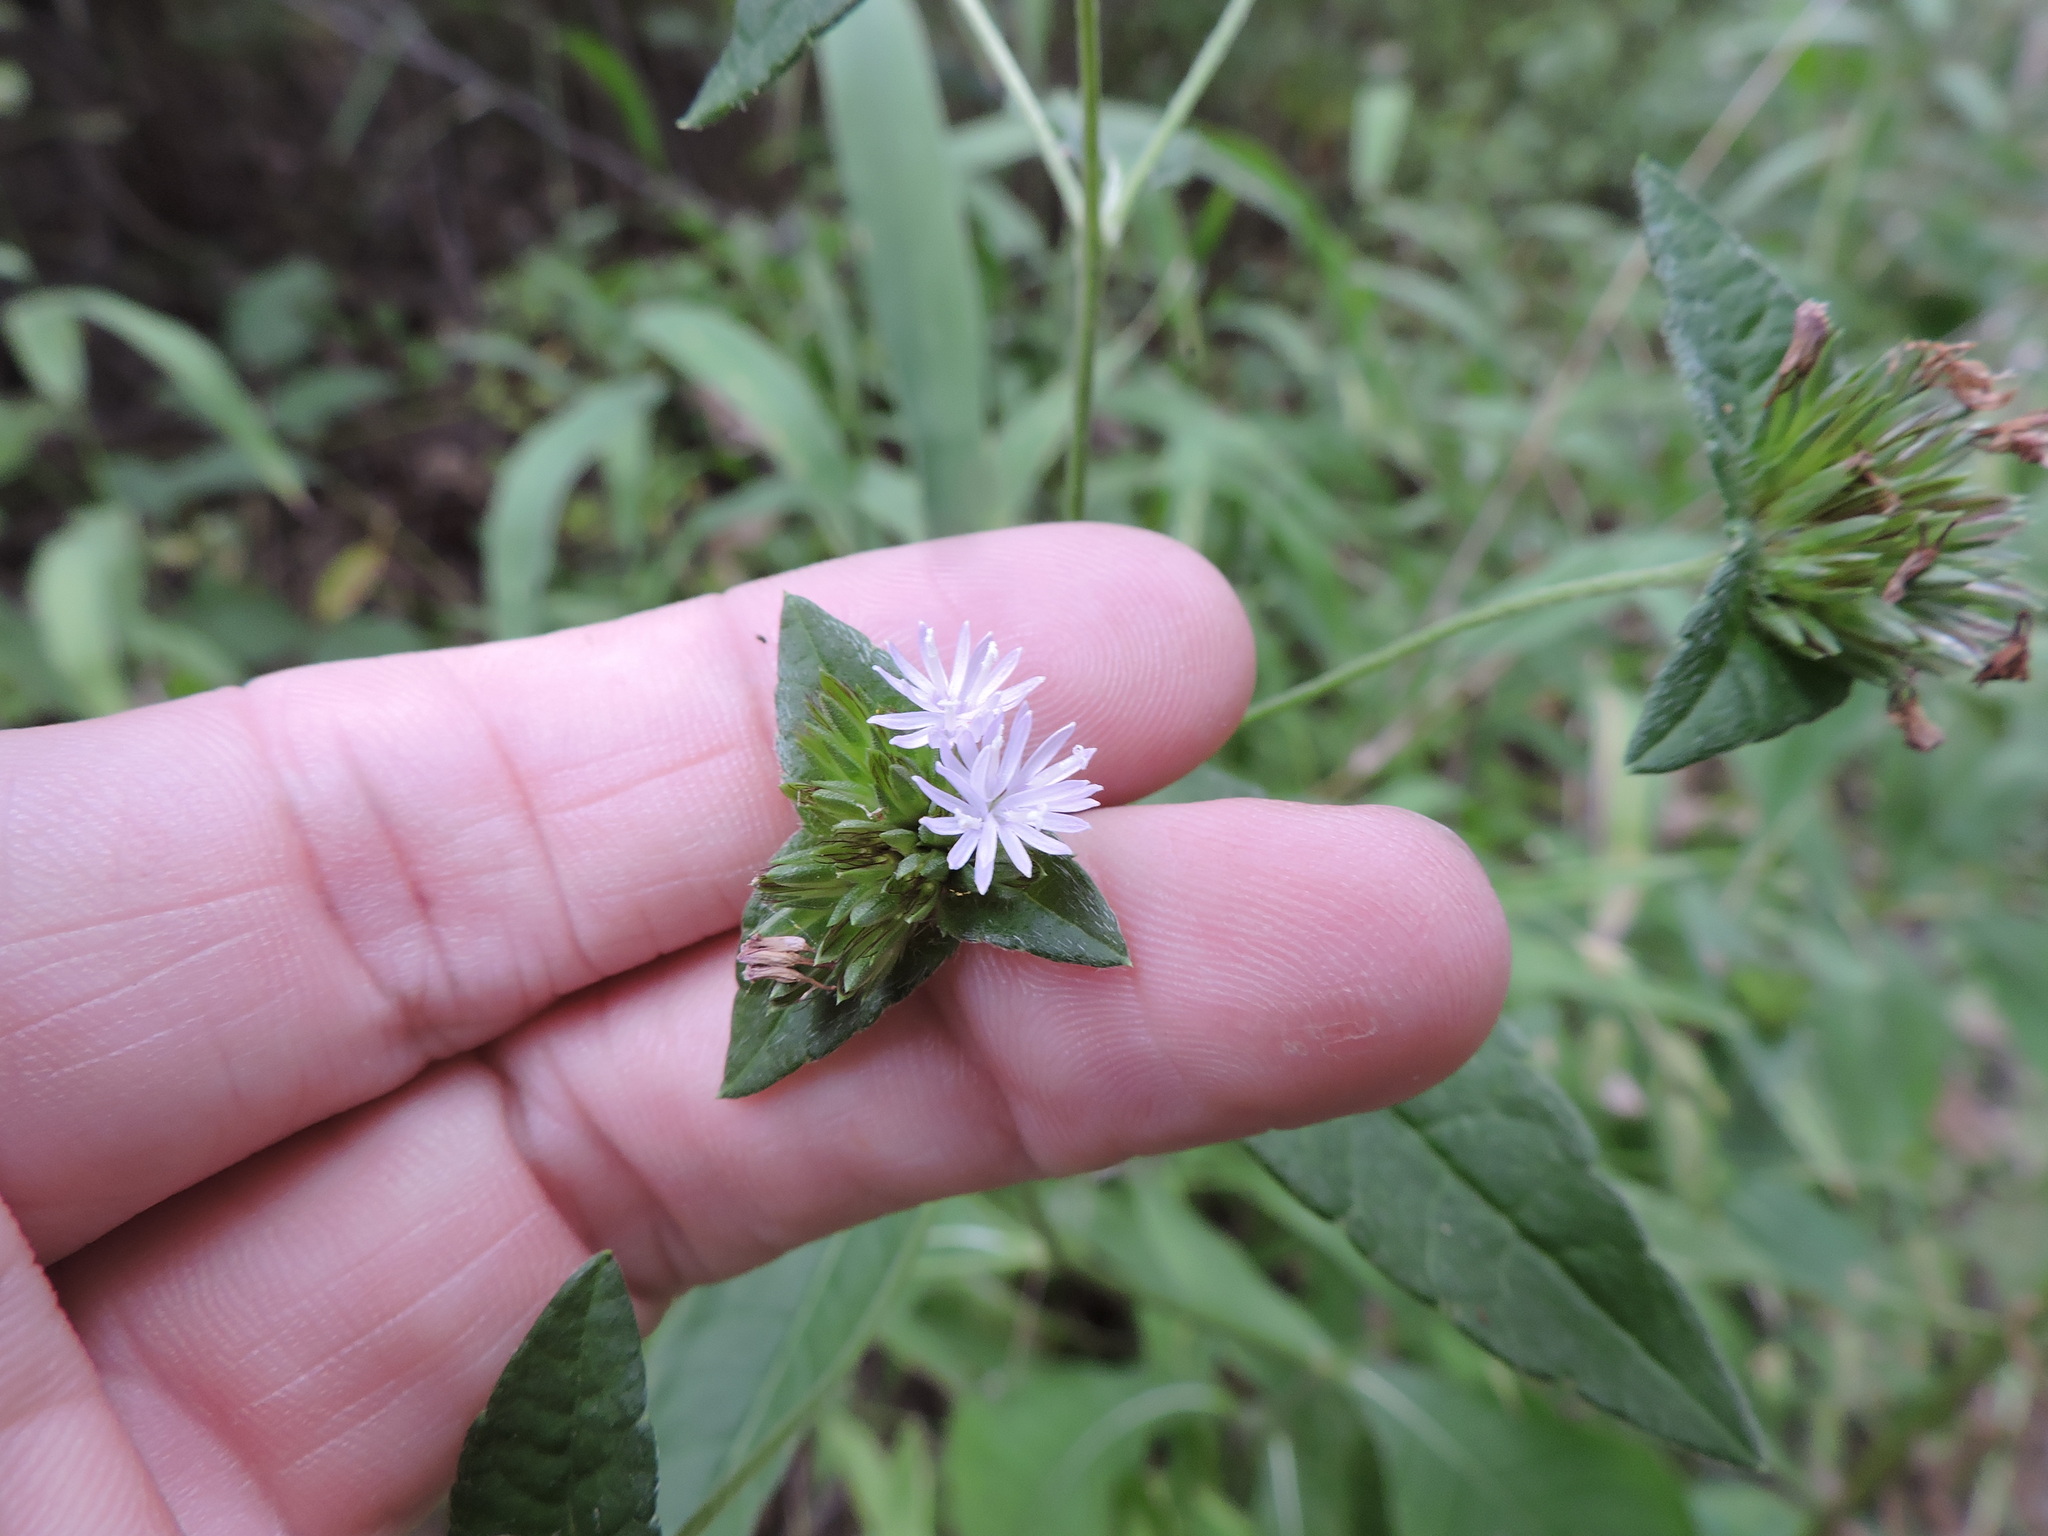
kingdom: Plantae
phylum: Tracheophyta
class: Magnoliopsida
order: Asterales
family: Asteraceae
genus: Elephantopus
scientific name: Elephantopus carolinianus
